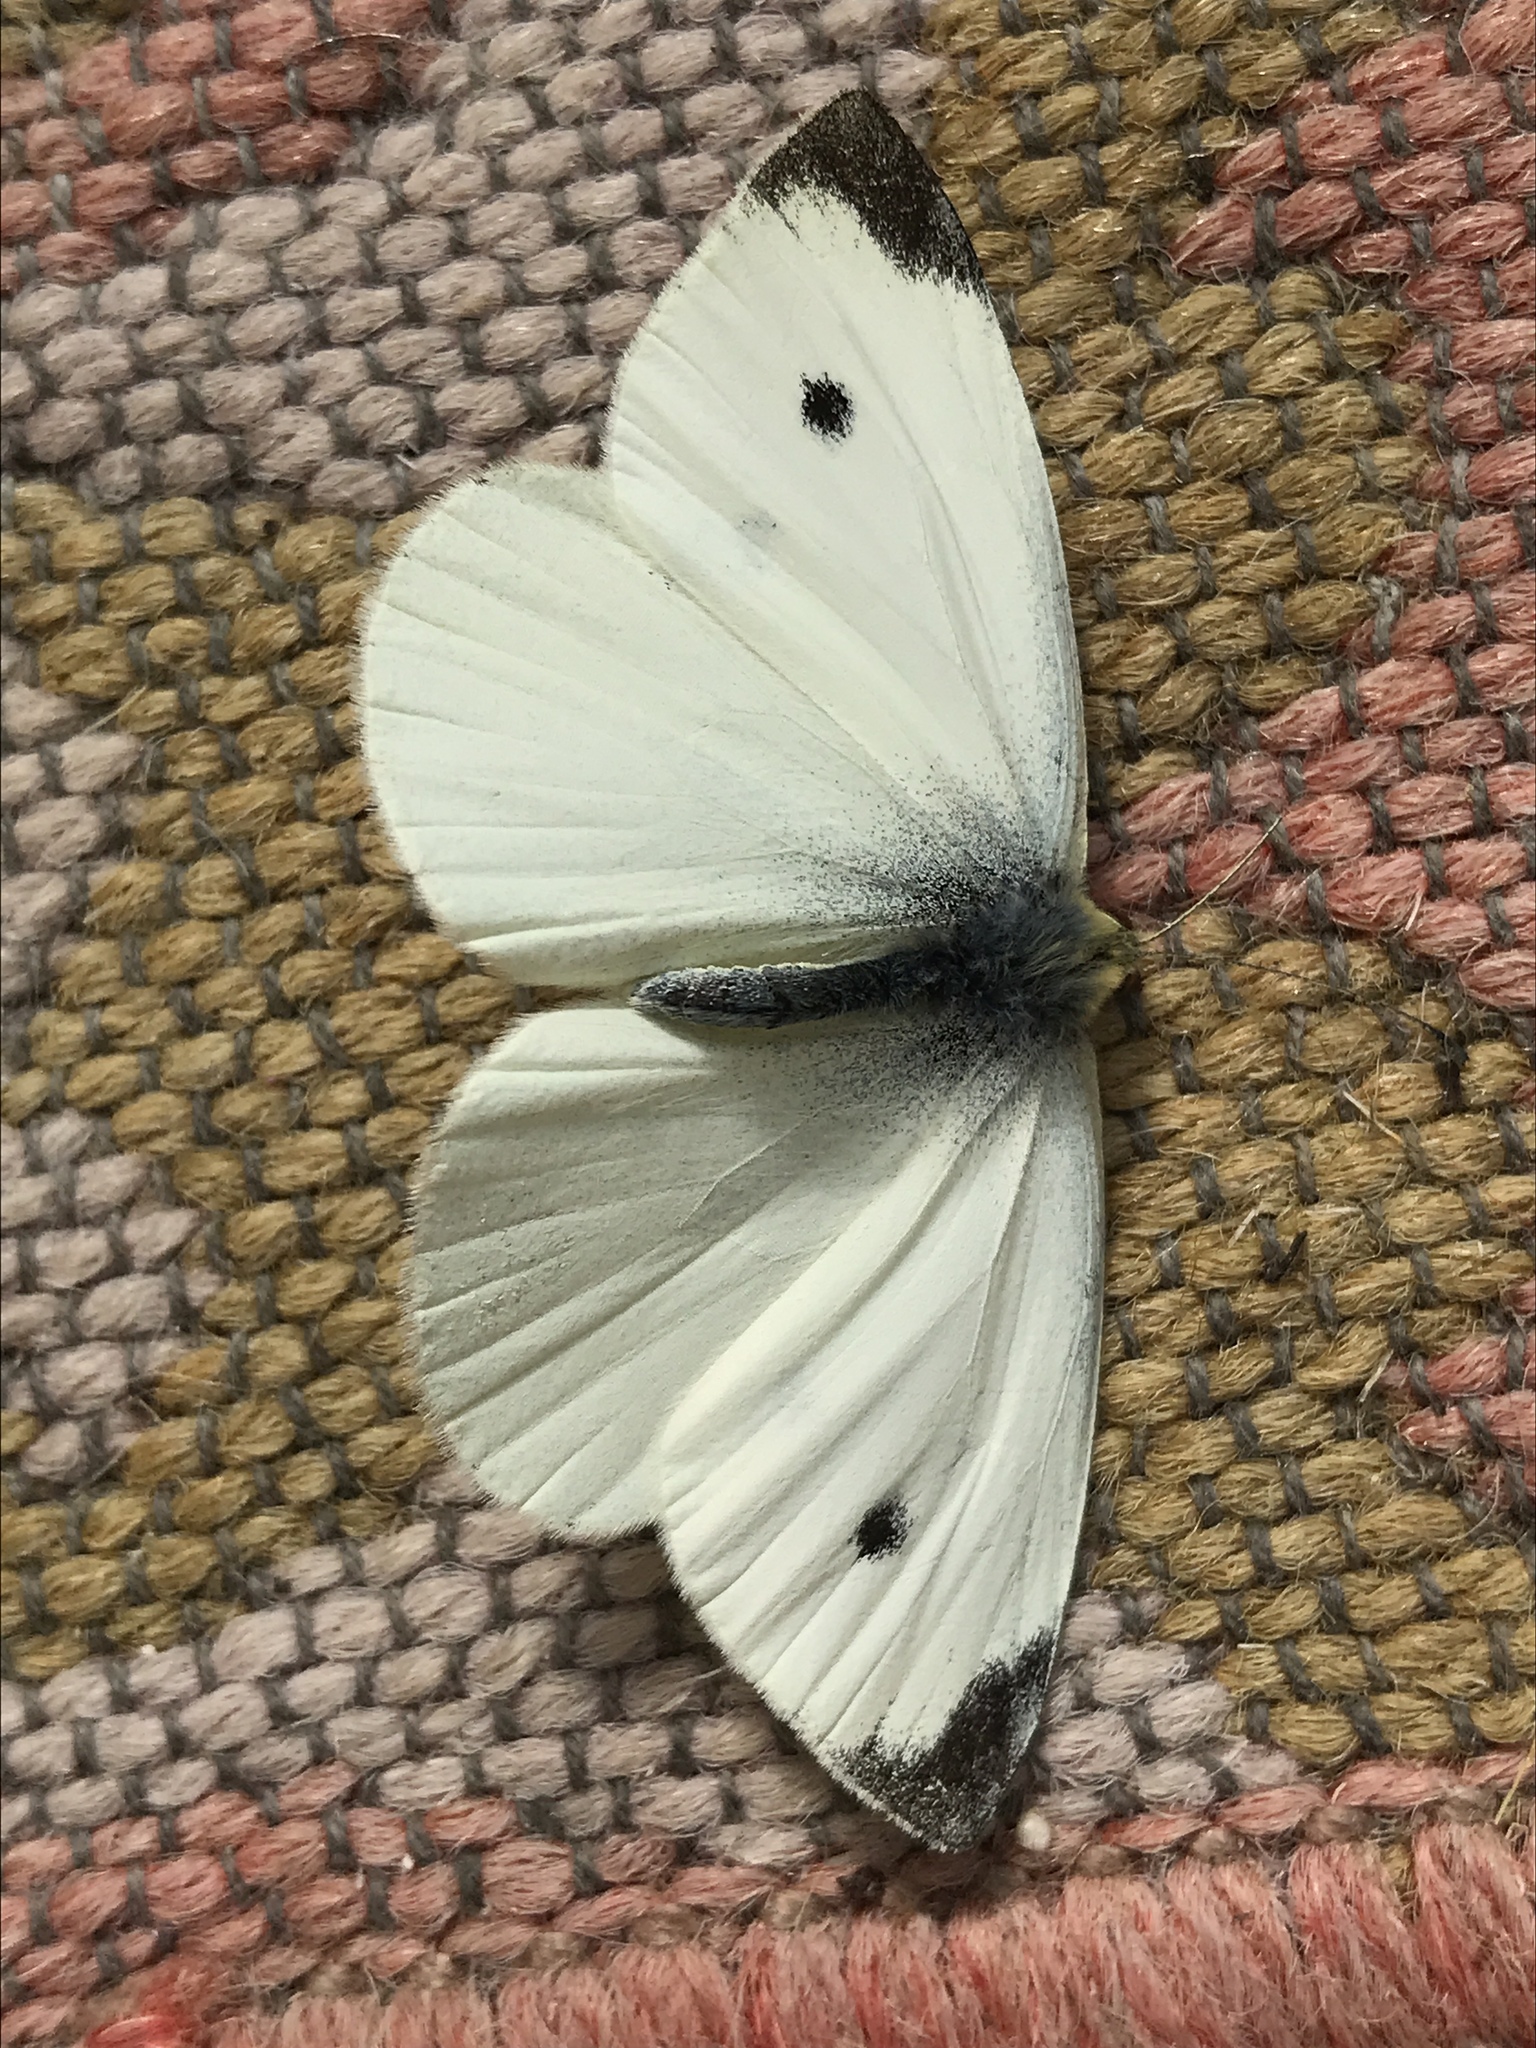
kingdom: Animalia
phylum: Arthropoda
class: Insecta
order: Lepidoptera
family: Pieridae
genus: Pieris
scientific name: Pieris rapae
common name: Small white
